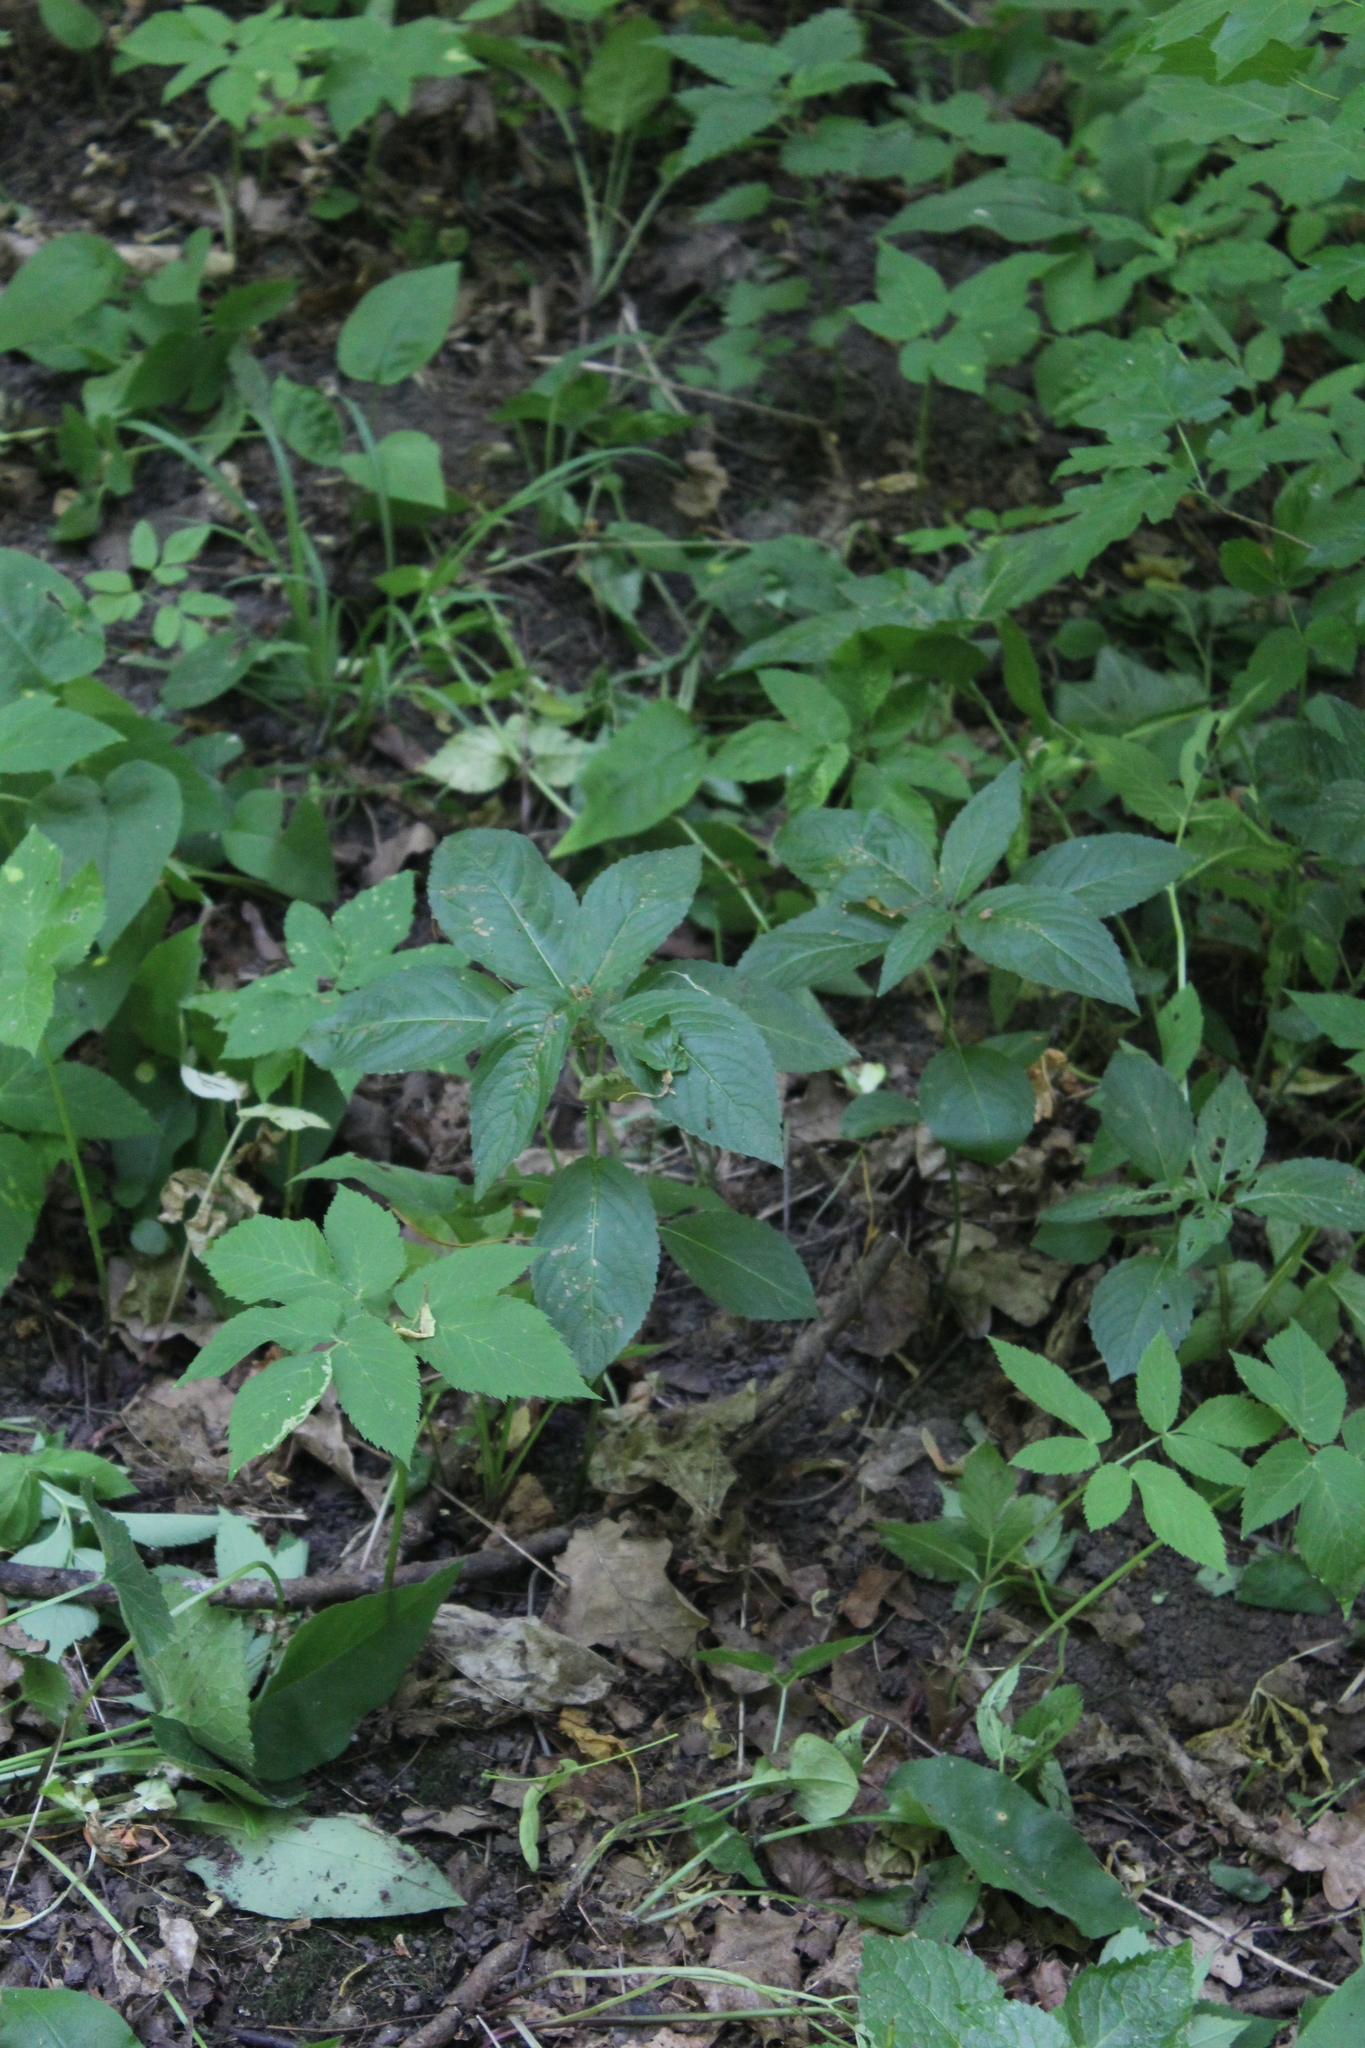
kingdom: Plantae
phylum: Tracheophyta
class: Magnoliopsida
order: Malpighiales
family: Euphorbiaceae
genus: Mercurialis
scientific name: Mercurialis perennis
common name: Dog mercury
